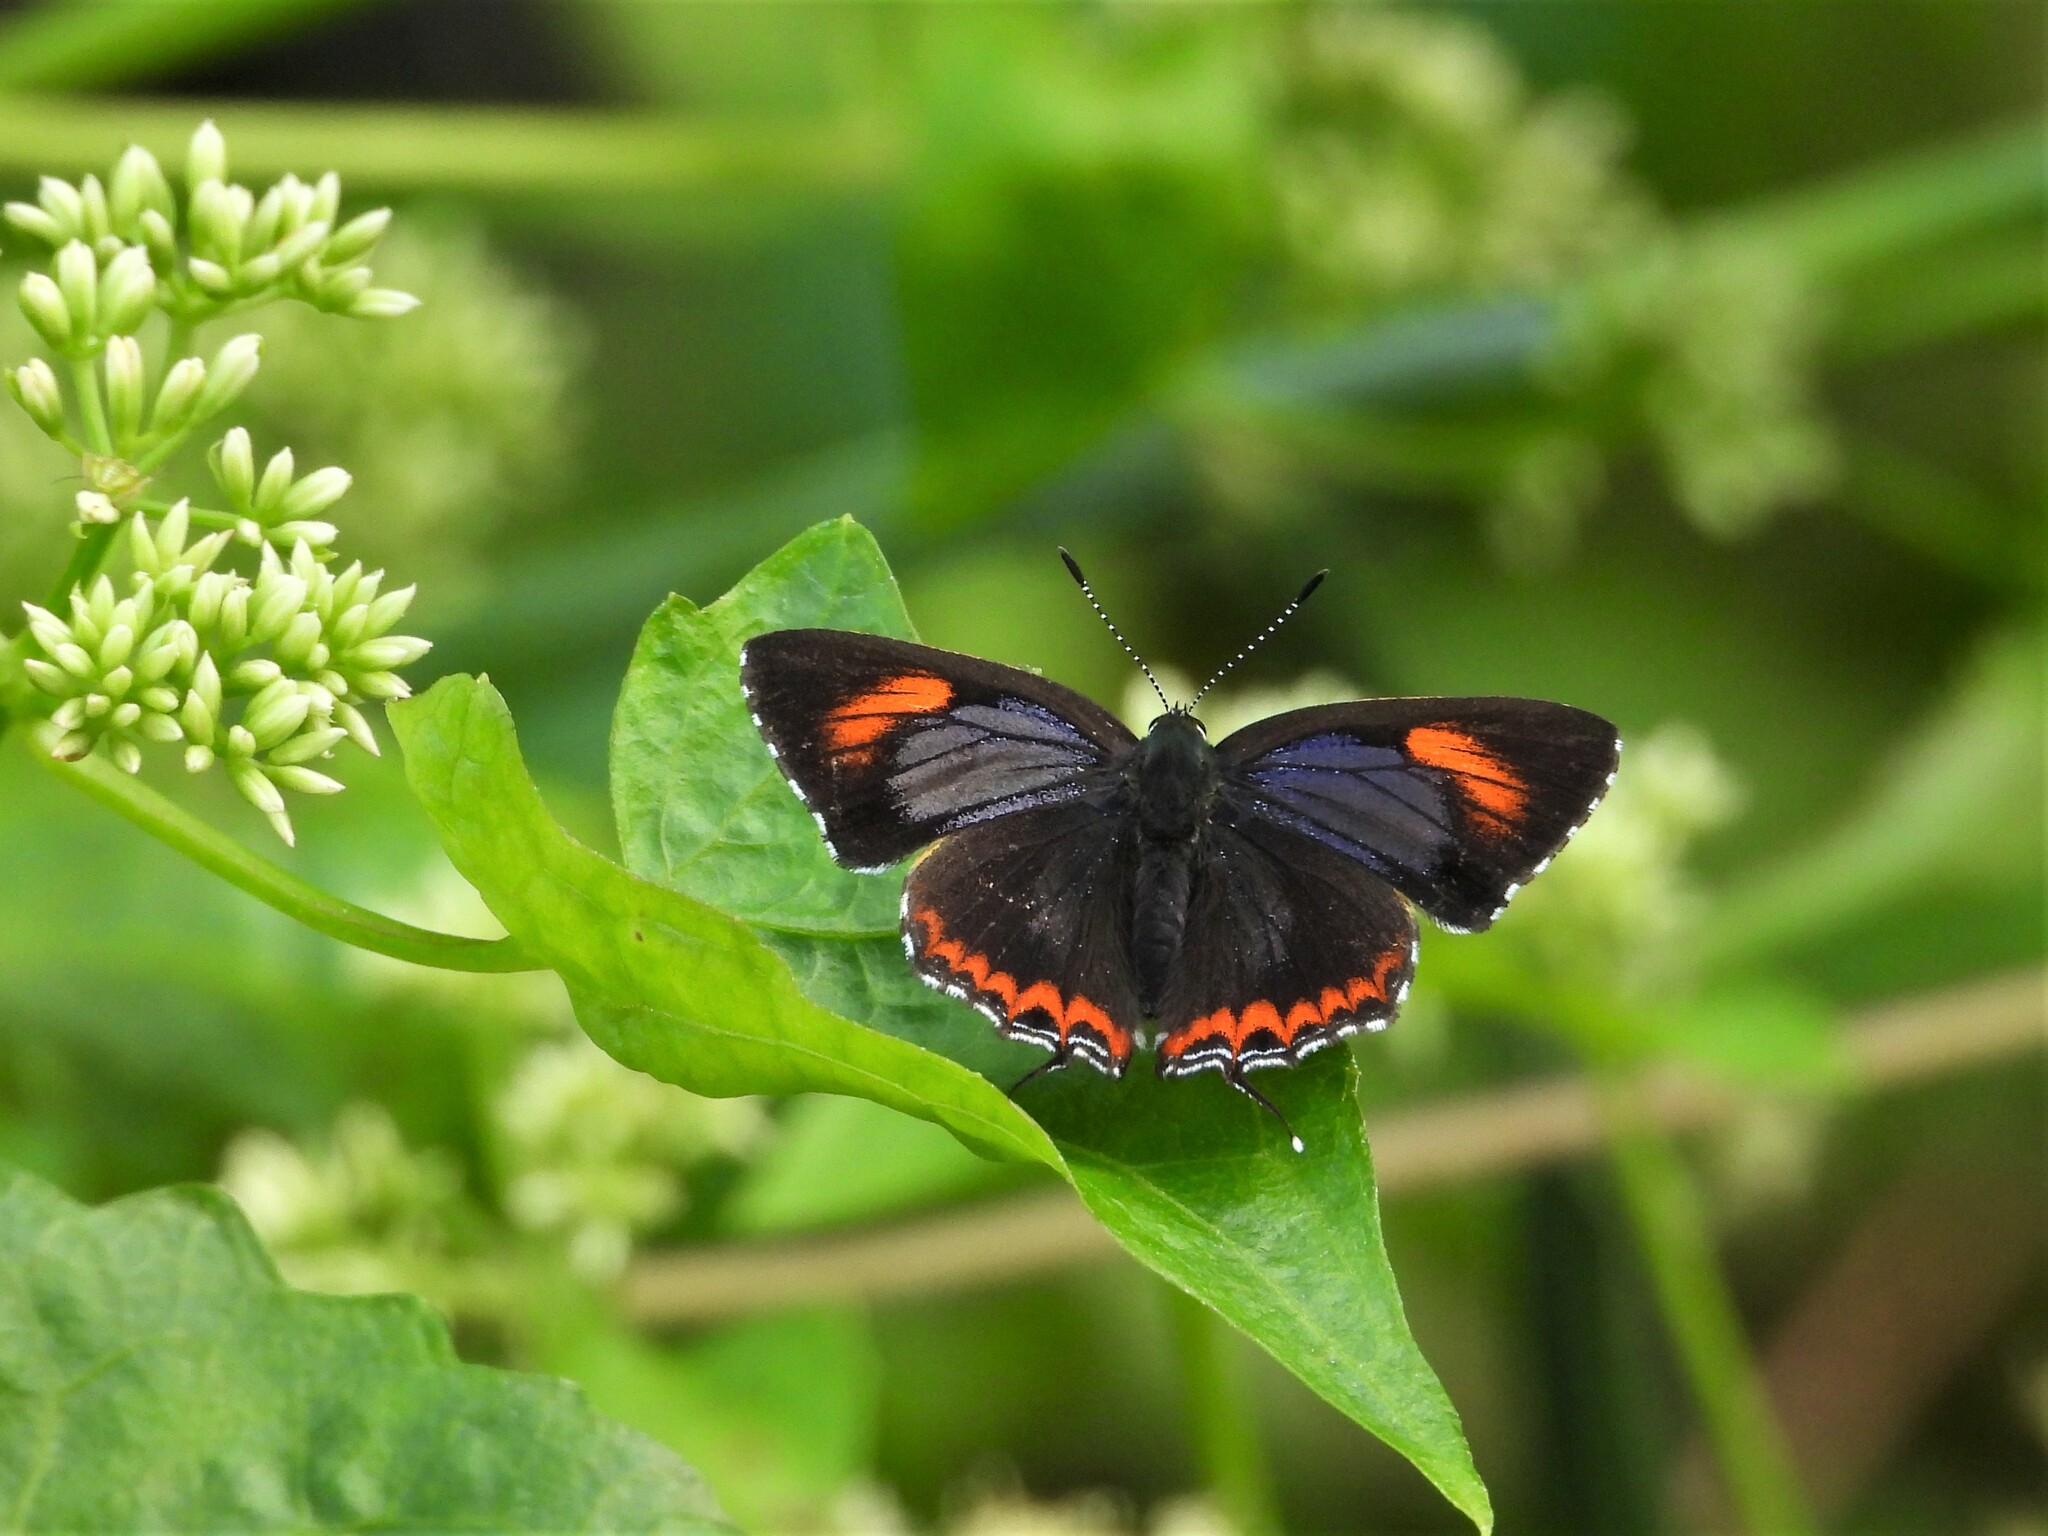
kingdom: Animalia
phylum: Arthropoda
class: Insecta
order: Lepidoptera
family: Lycaenidae
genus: Heliophorus
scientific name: Heliophorus epicles
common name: Purple sapphire
